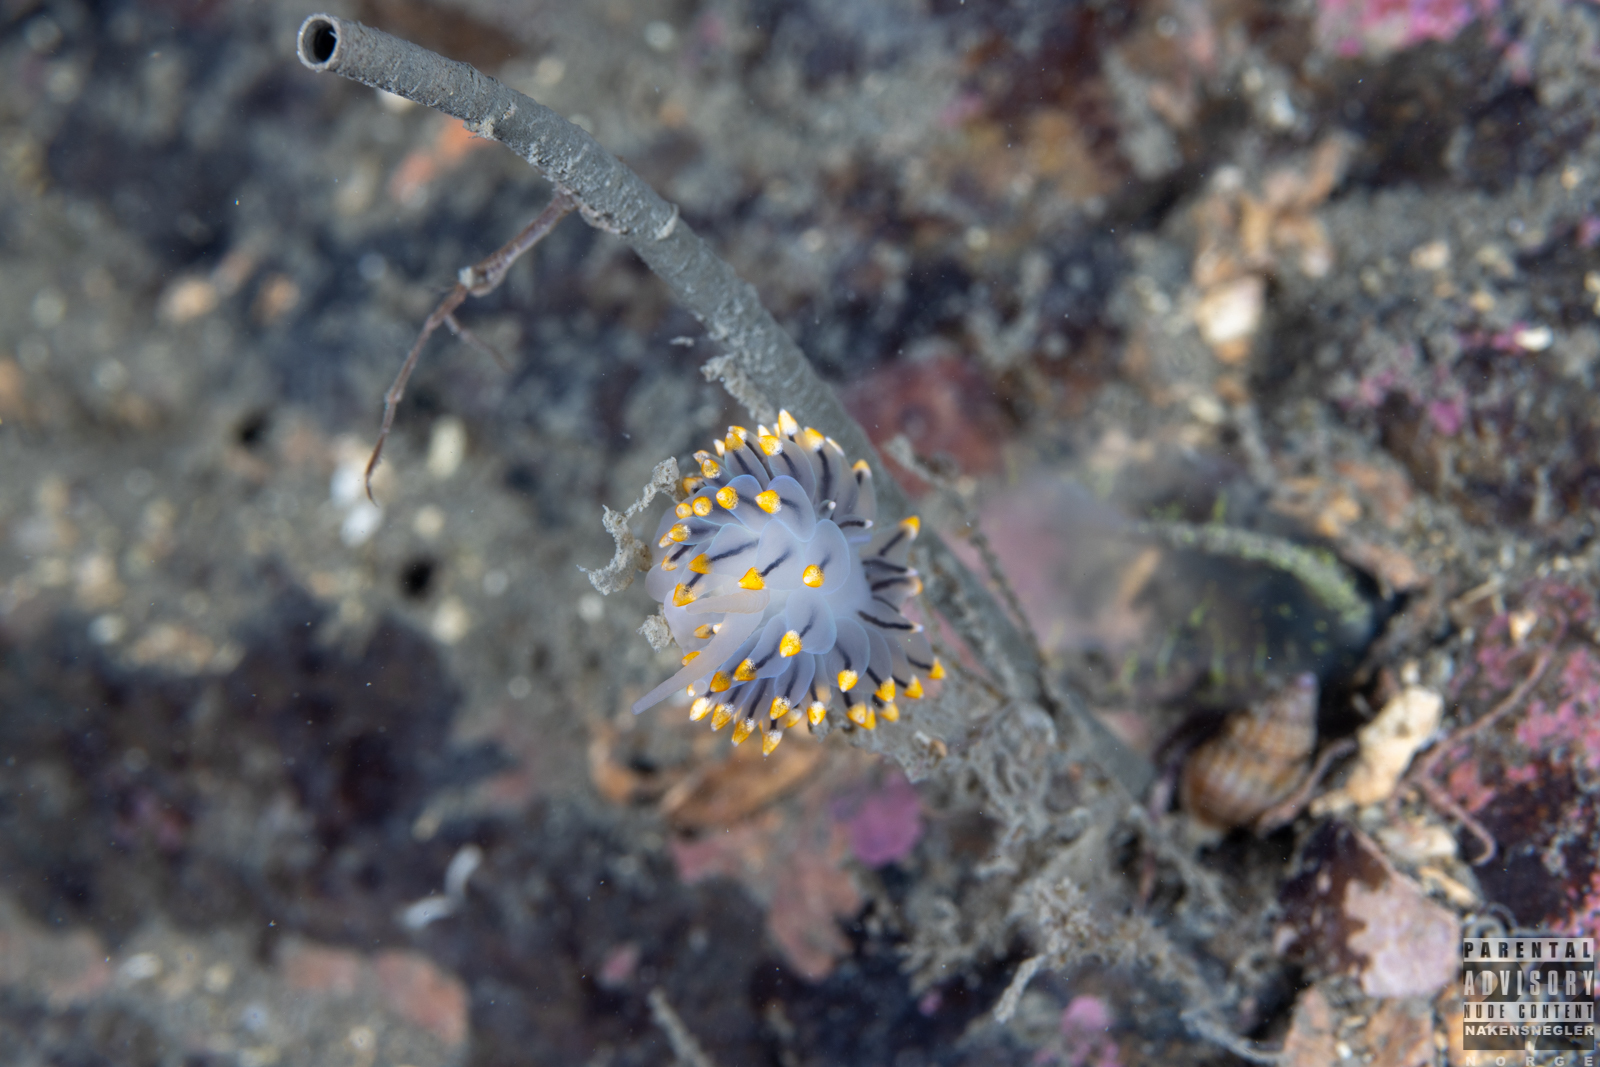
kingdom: Animalia
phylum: Mollusca
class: Gastropoda
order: Nudibranchia
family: Eubranchidae
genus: Eubranchus
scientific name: Eubranchus tricolor
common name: Painted balloon aeolis
